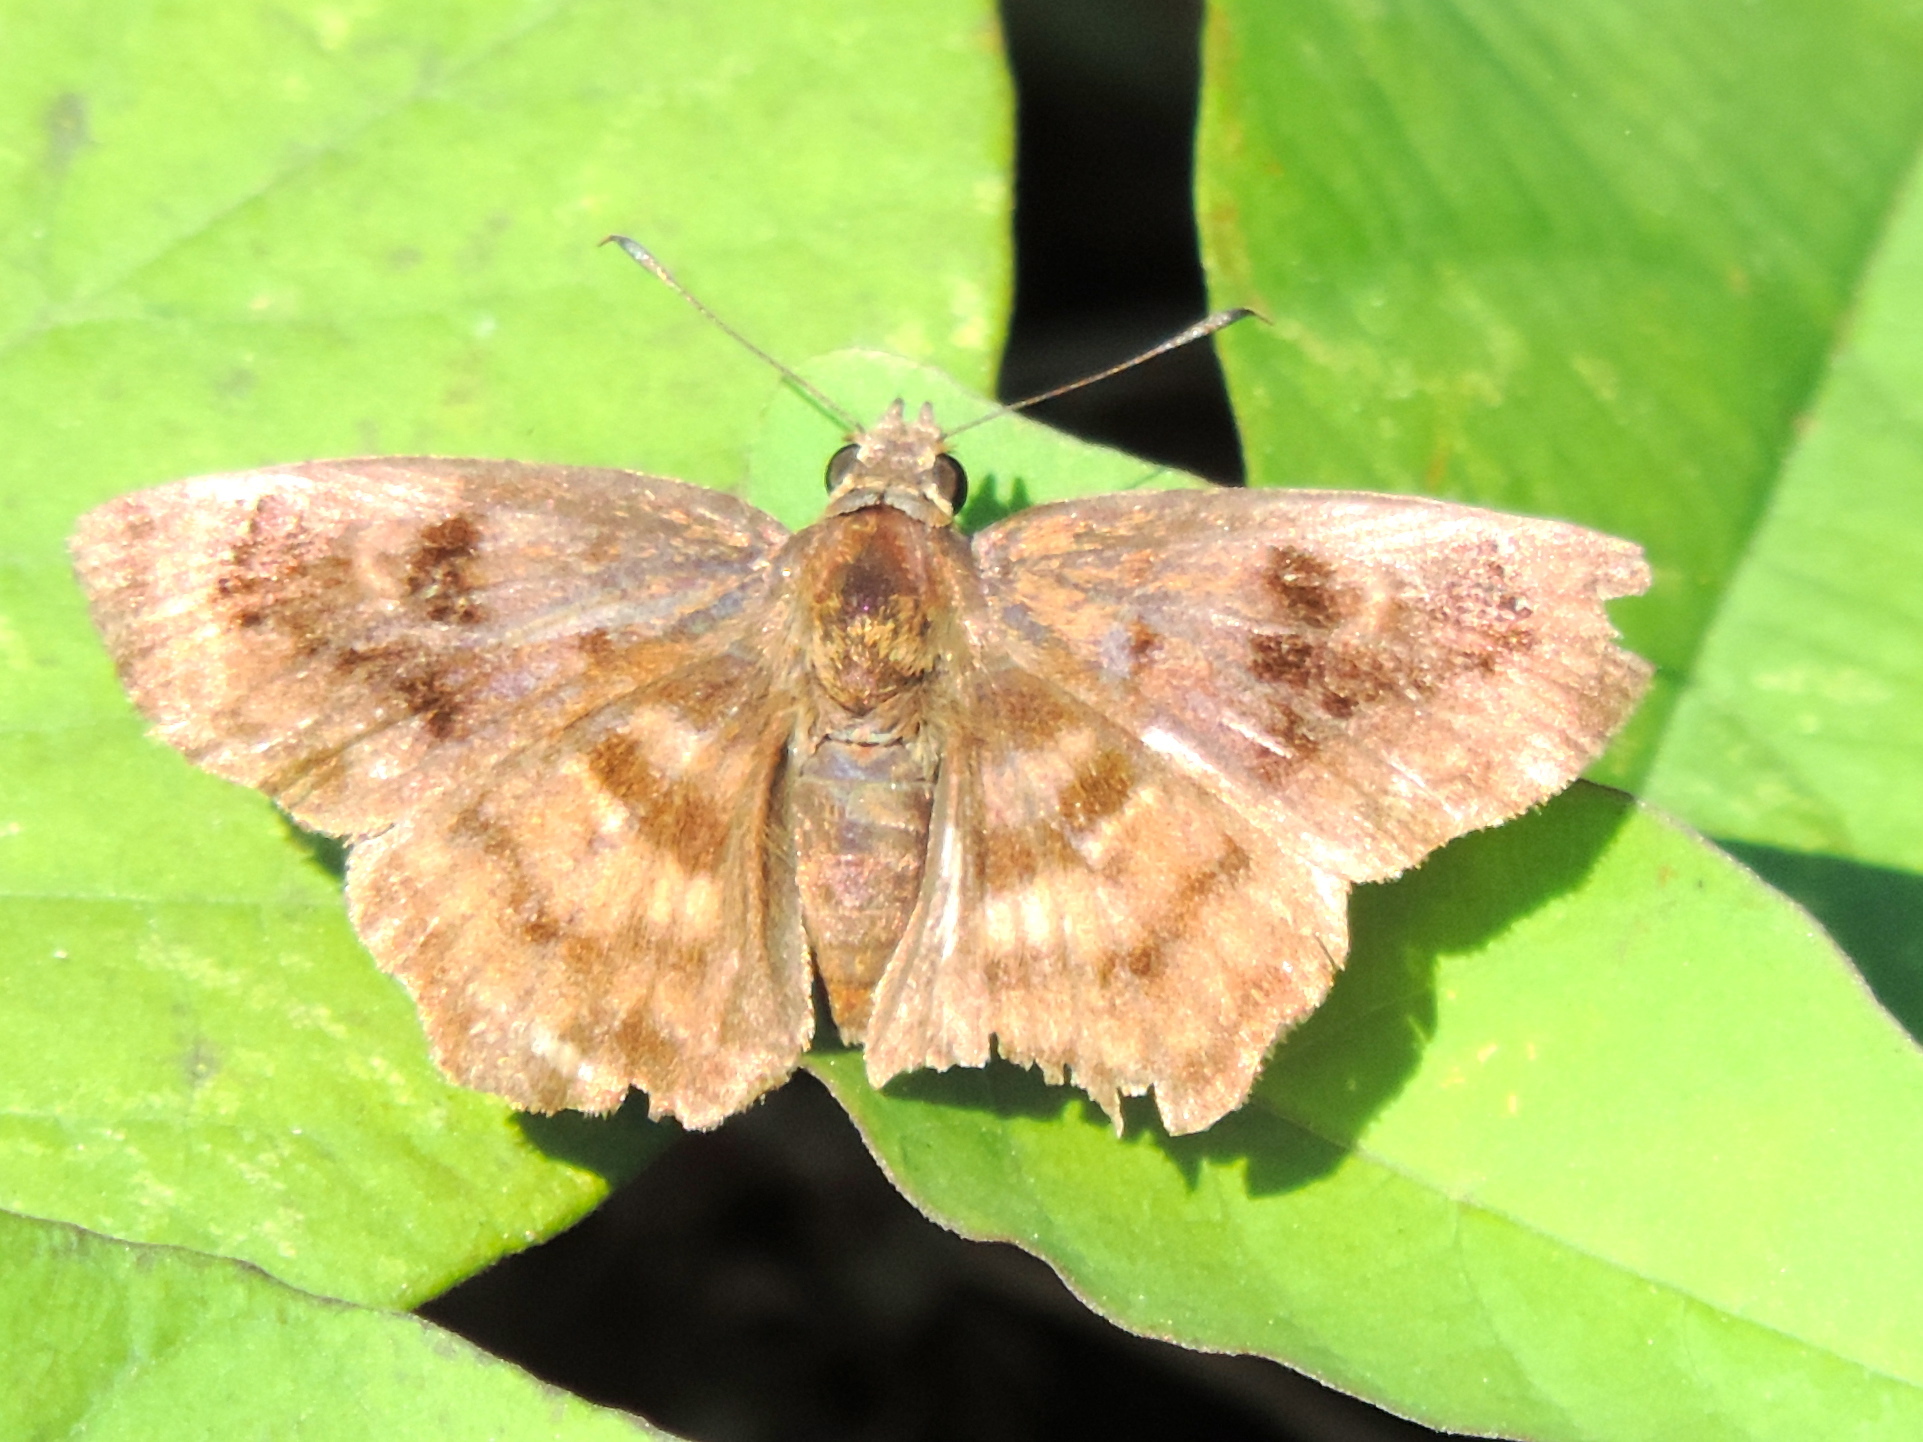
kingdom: Animalia
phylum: Arthropoda
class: Insecta
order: Lepidoptera
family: Hesperiidae
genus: Pyrginae
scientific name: Pyrginae
